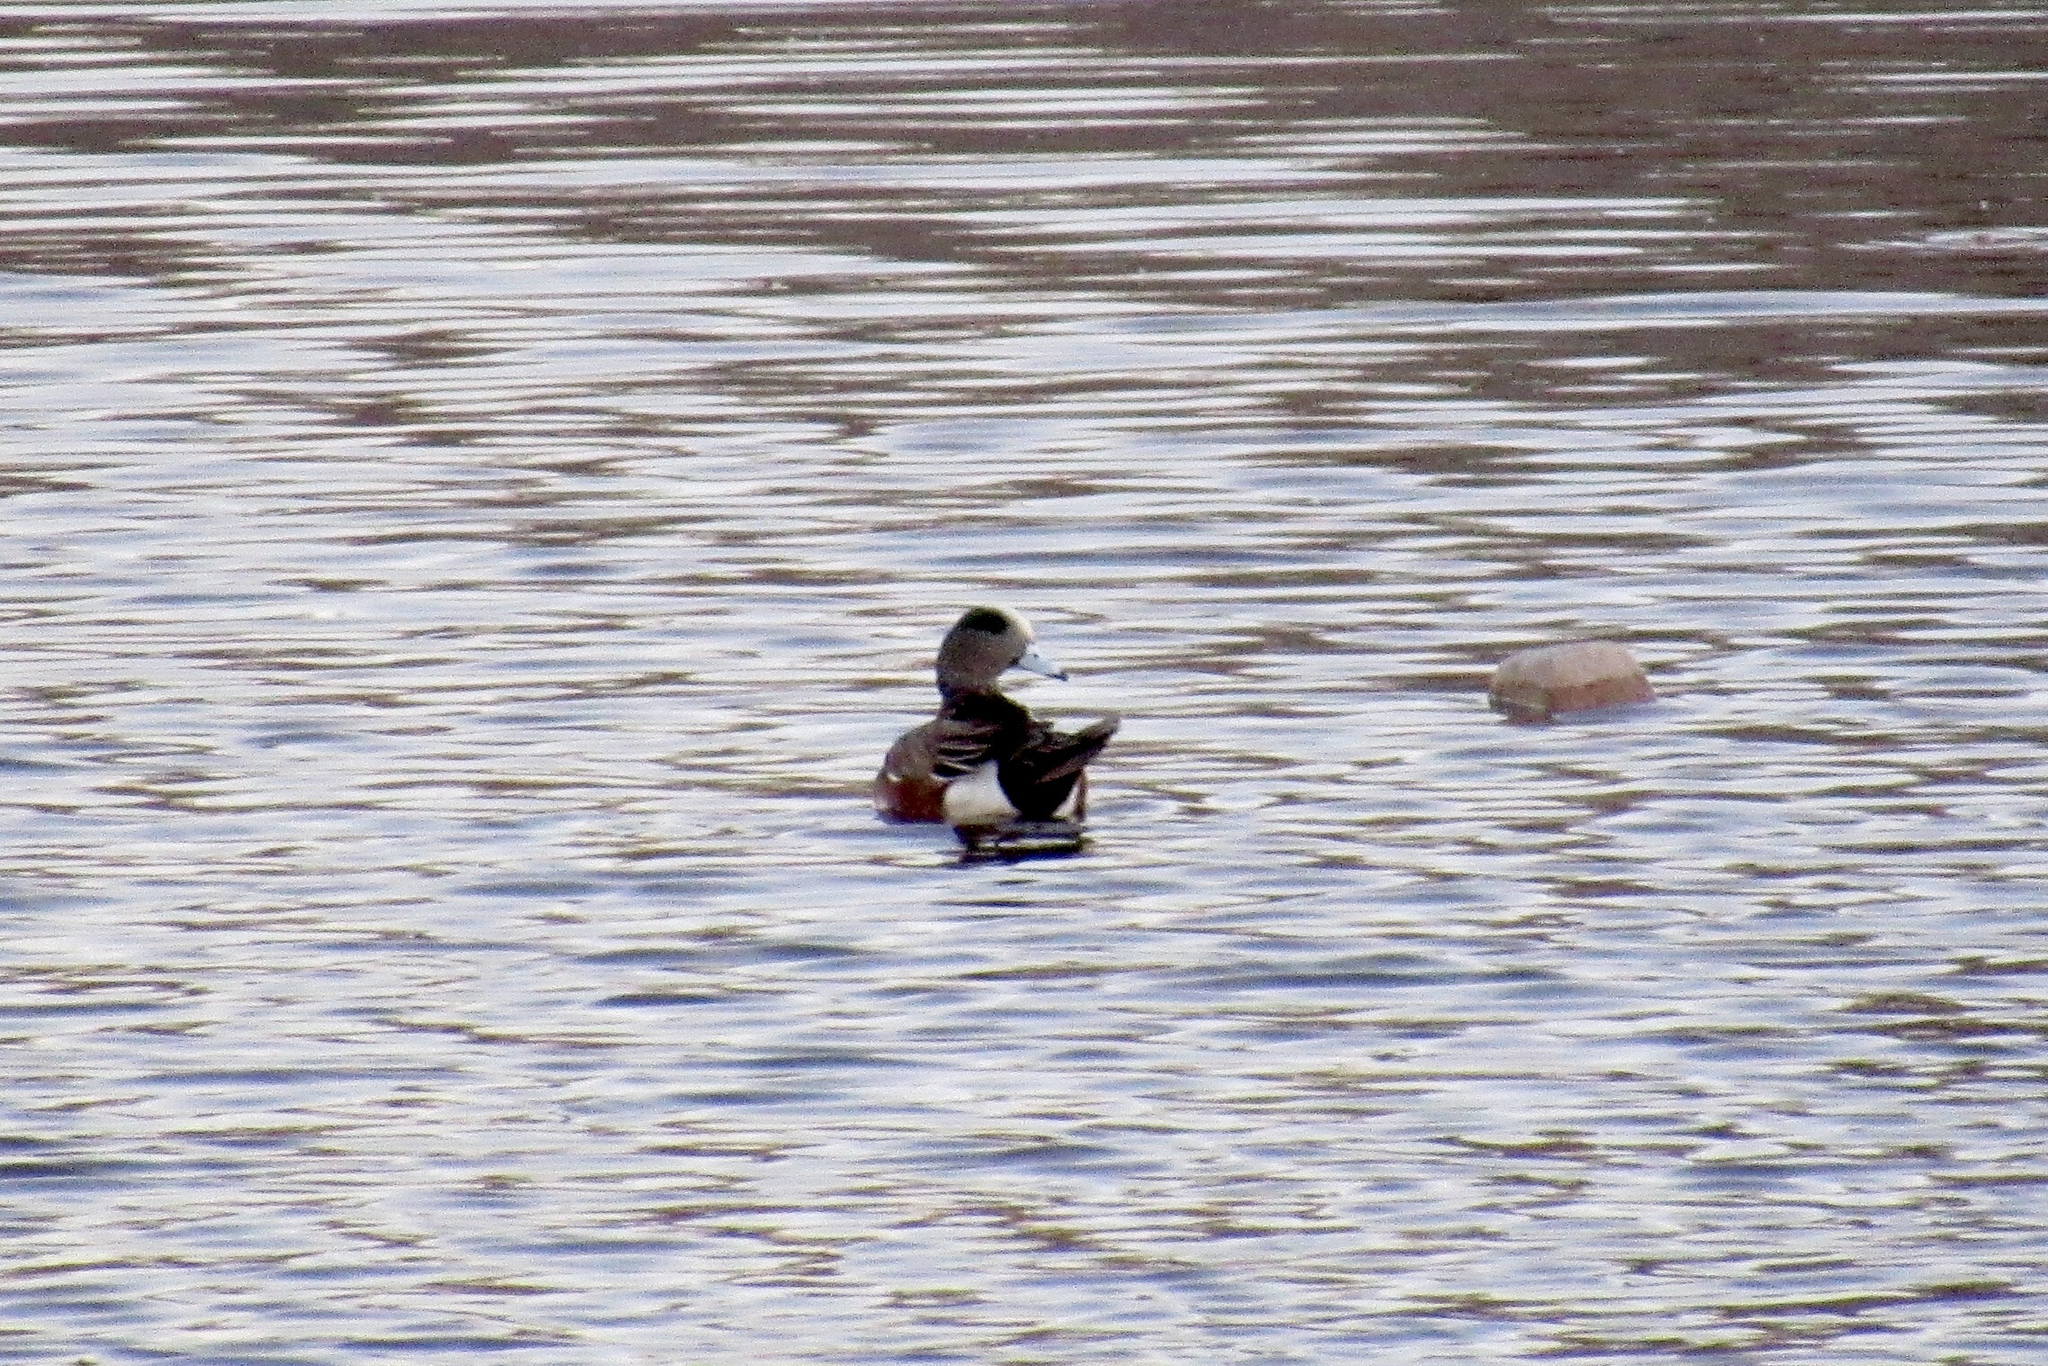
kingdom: Animalia
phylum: Chordata
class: Aves
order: Anseriformes
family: Anatidae
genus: Mareca
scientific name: Mareca americana
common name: American wigeon
